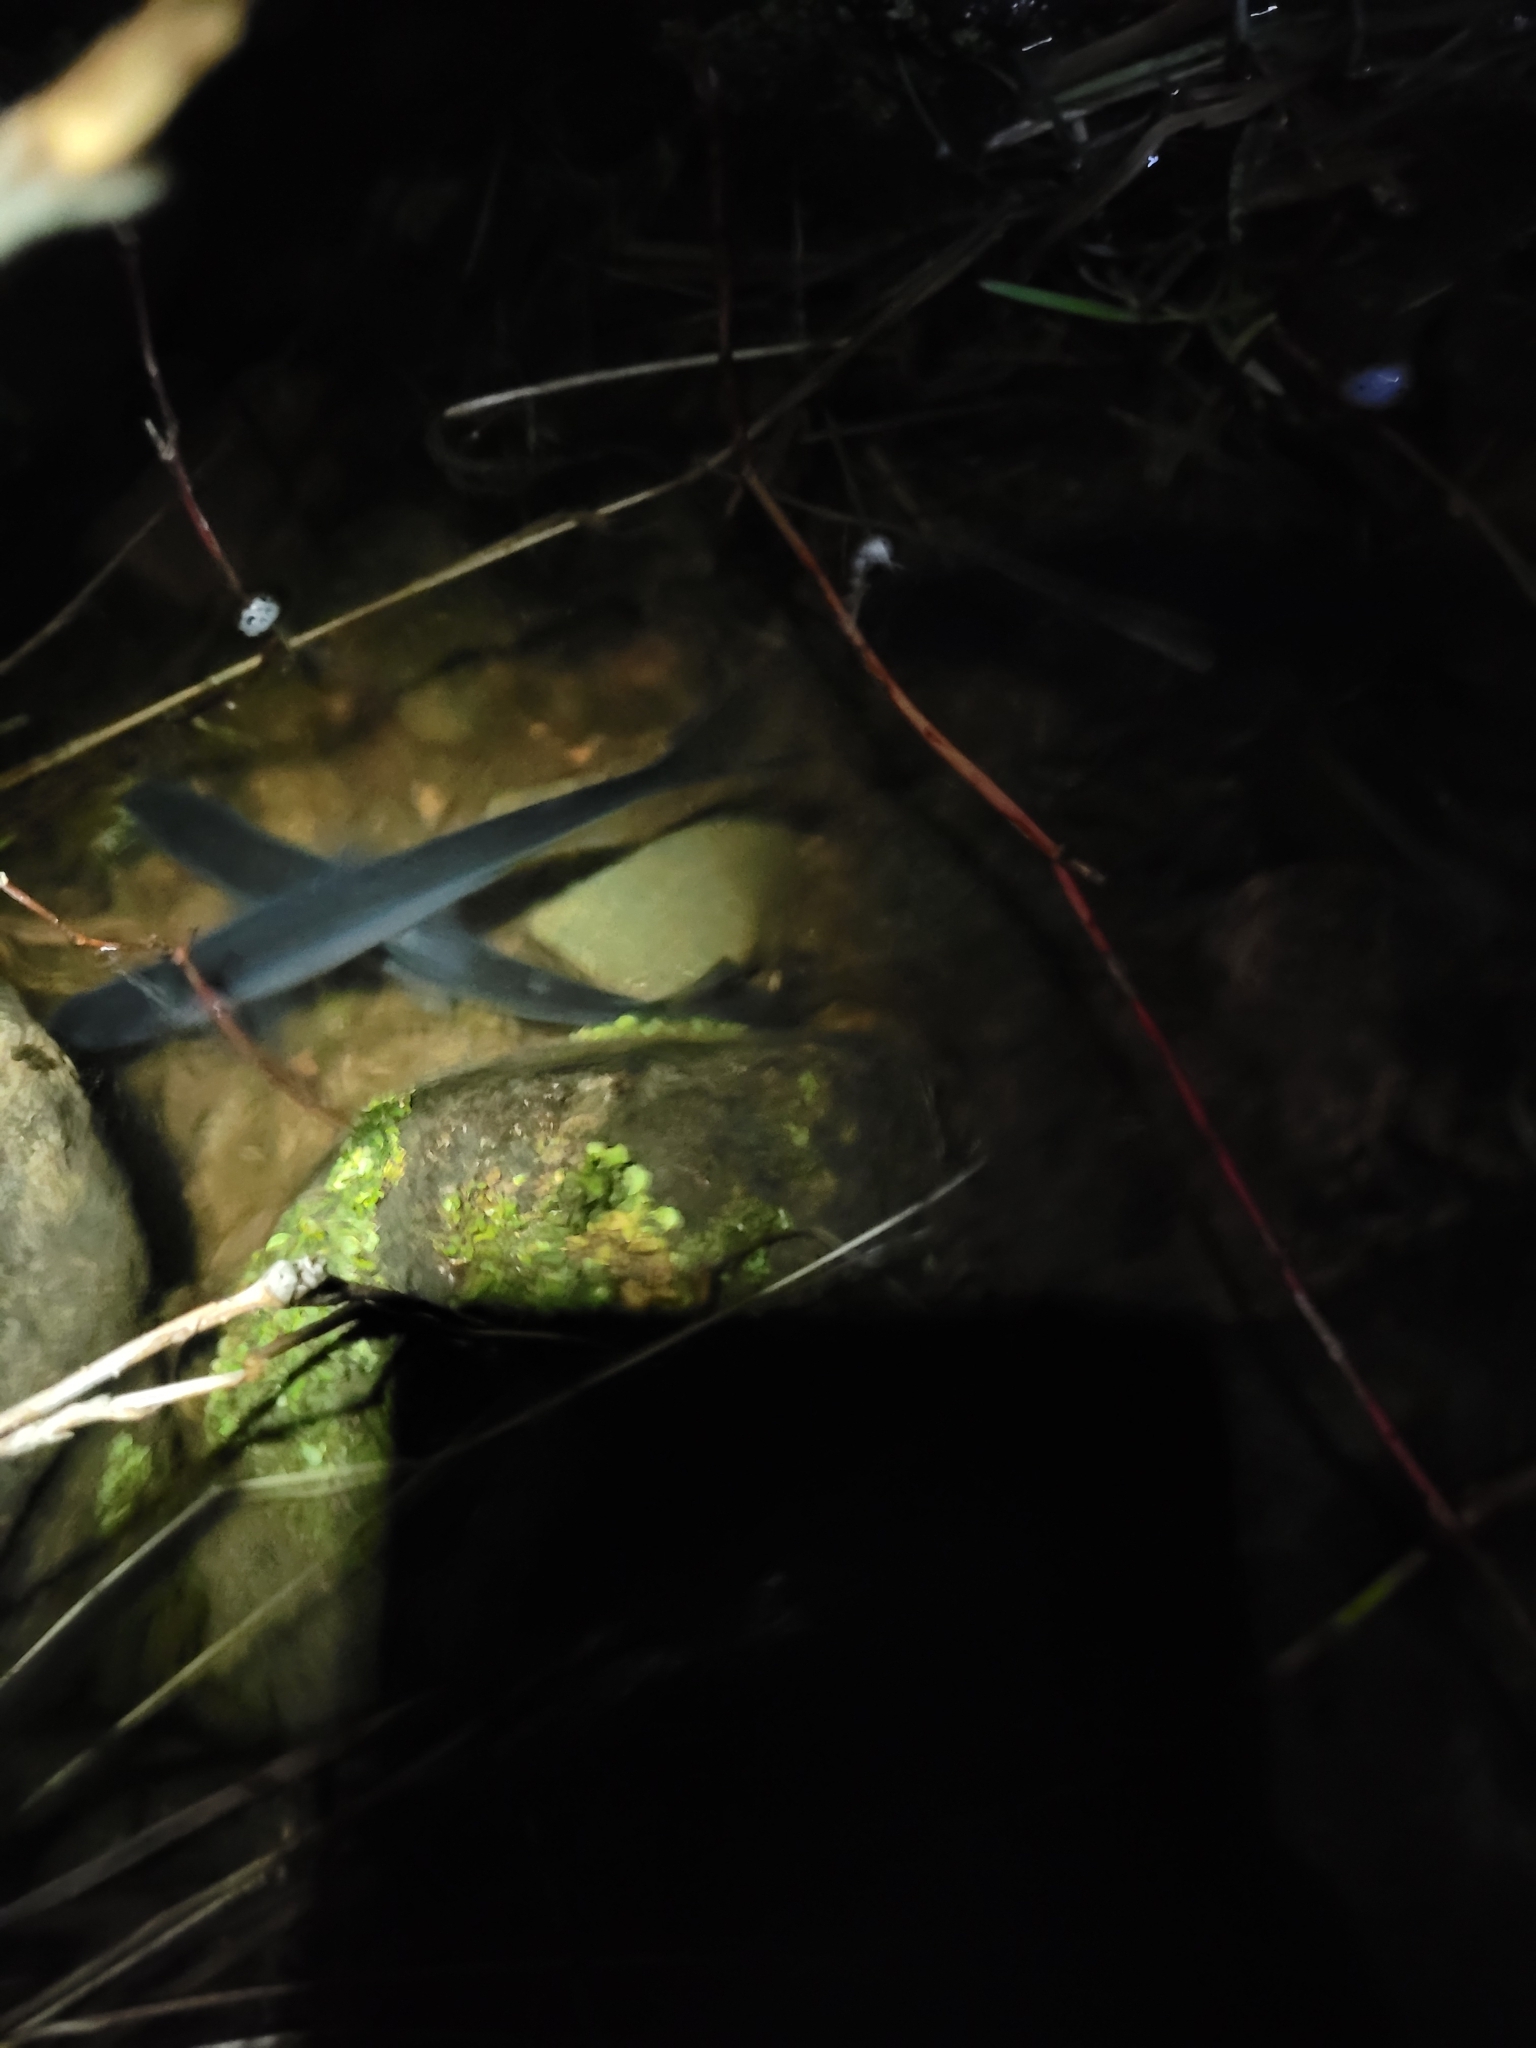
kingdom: Animalia
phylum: Chordata
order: Osmeriformes
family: Osmeridae
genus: Osmerus
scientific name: Osmerus mordax
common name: Rainbow smelt
